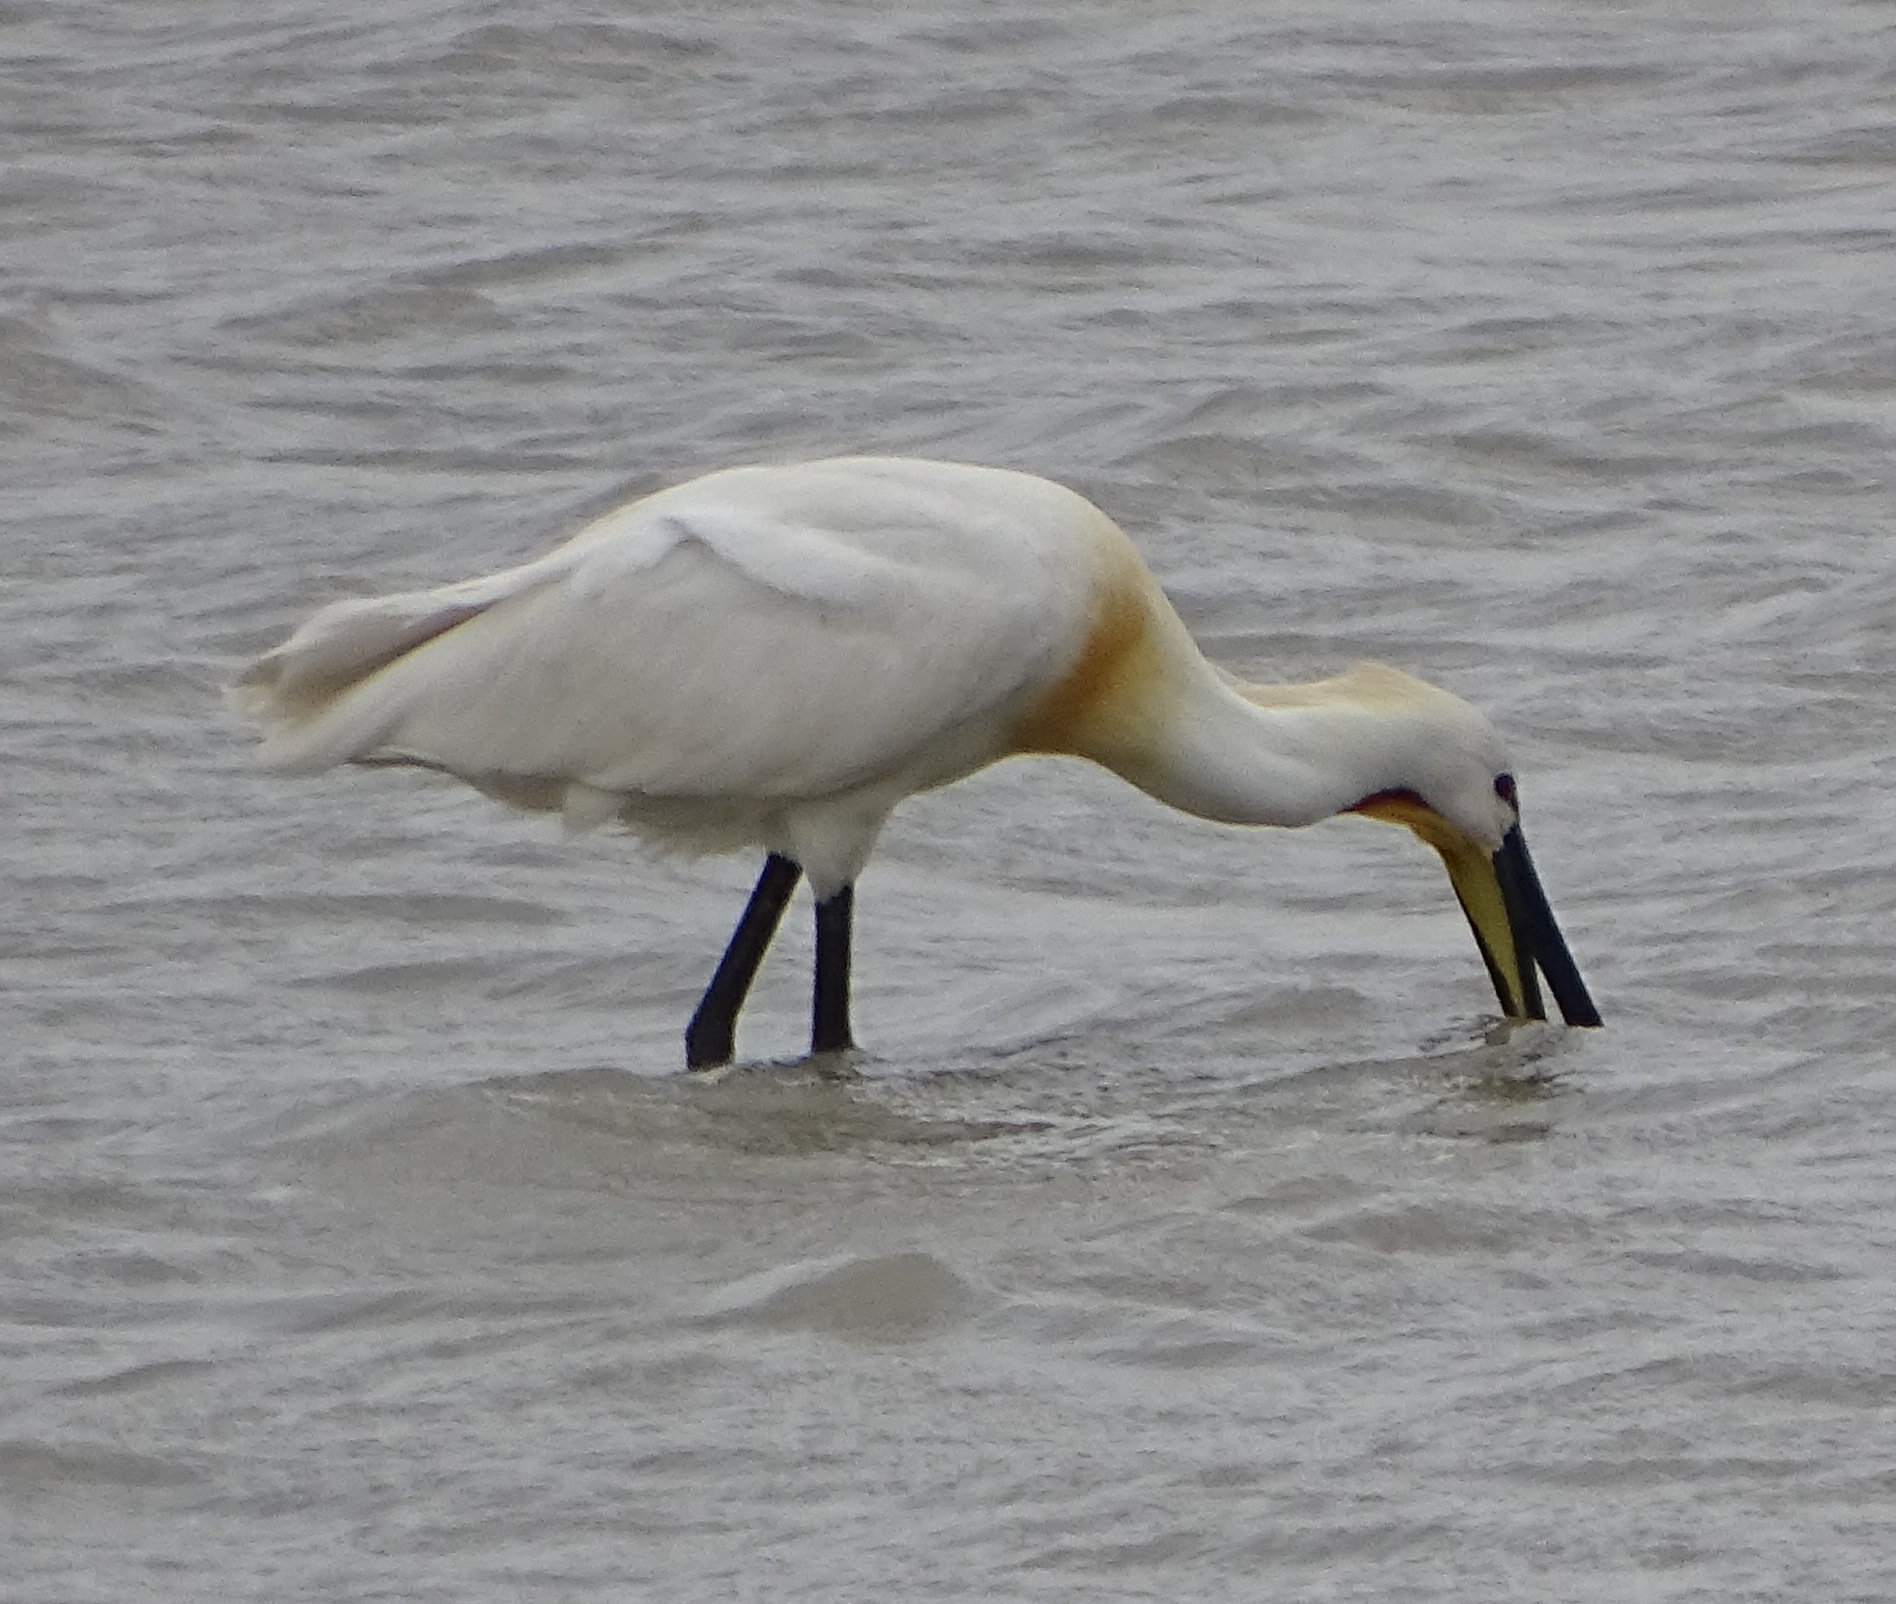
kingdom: Animalia
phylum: Chordata
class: Aves
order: Pelecaniformes
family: Threskiornithidae
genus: Platalea
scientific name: Platalea leucorodia
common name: Eurasian spoonbill
